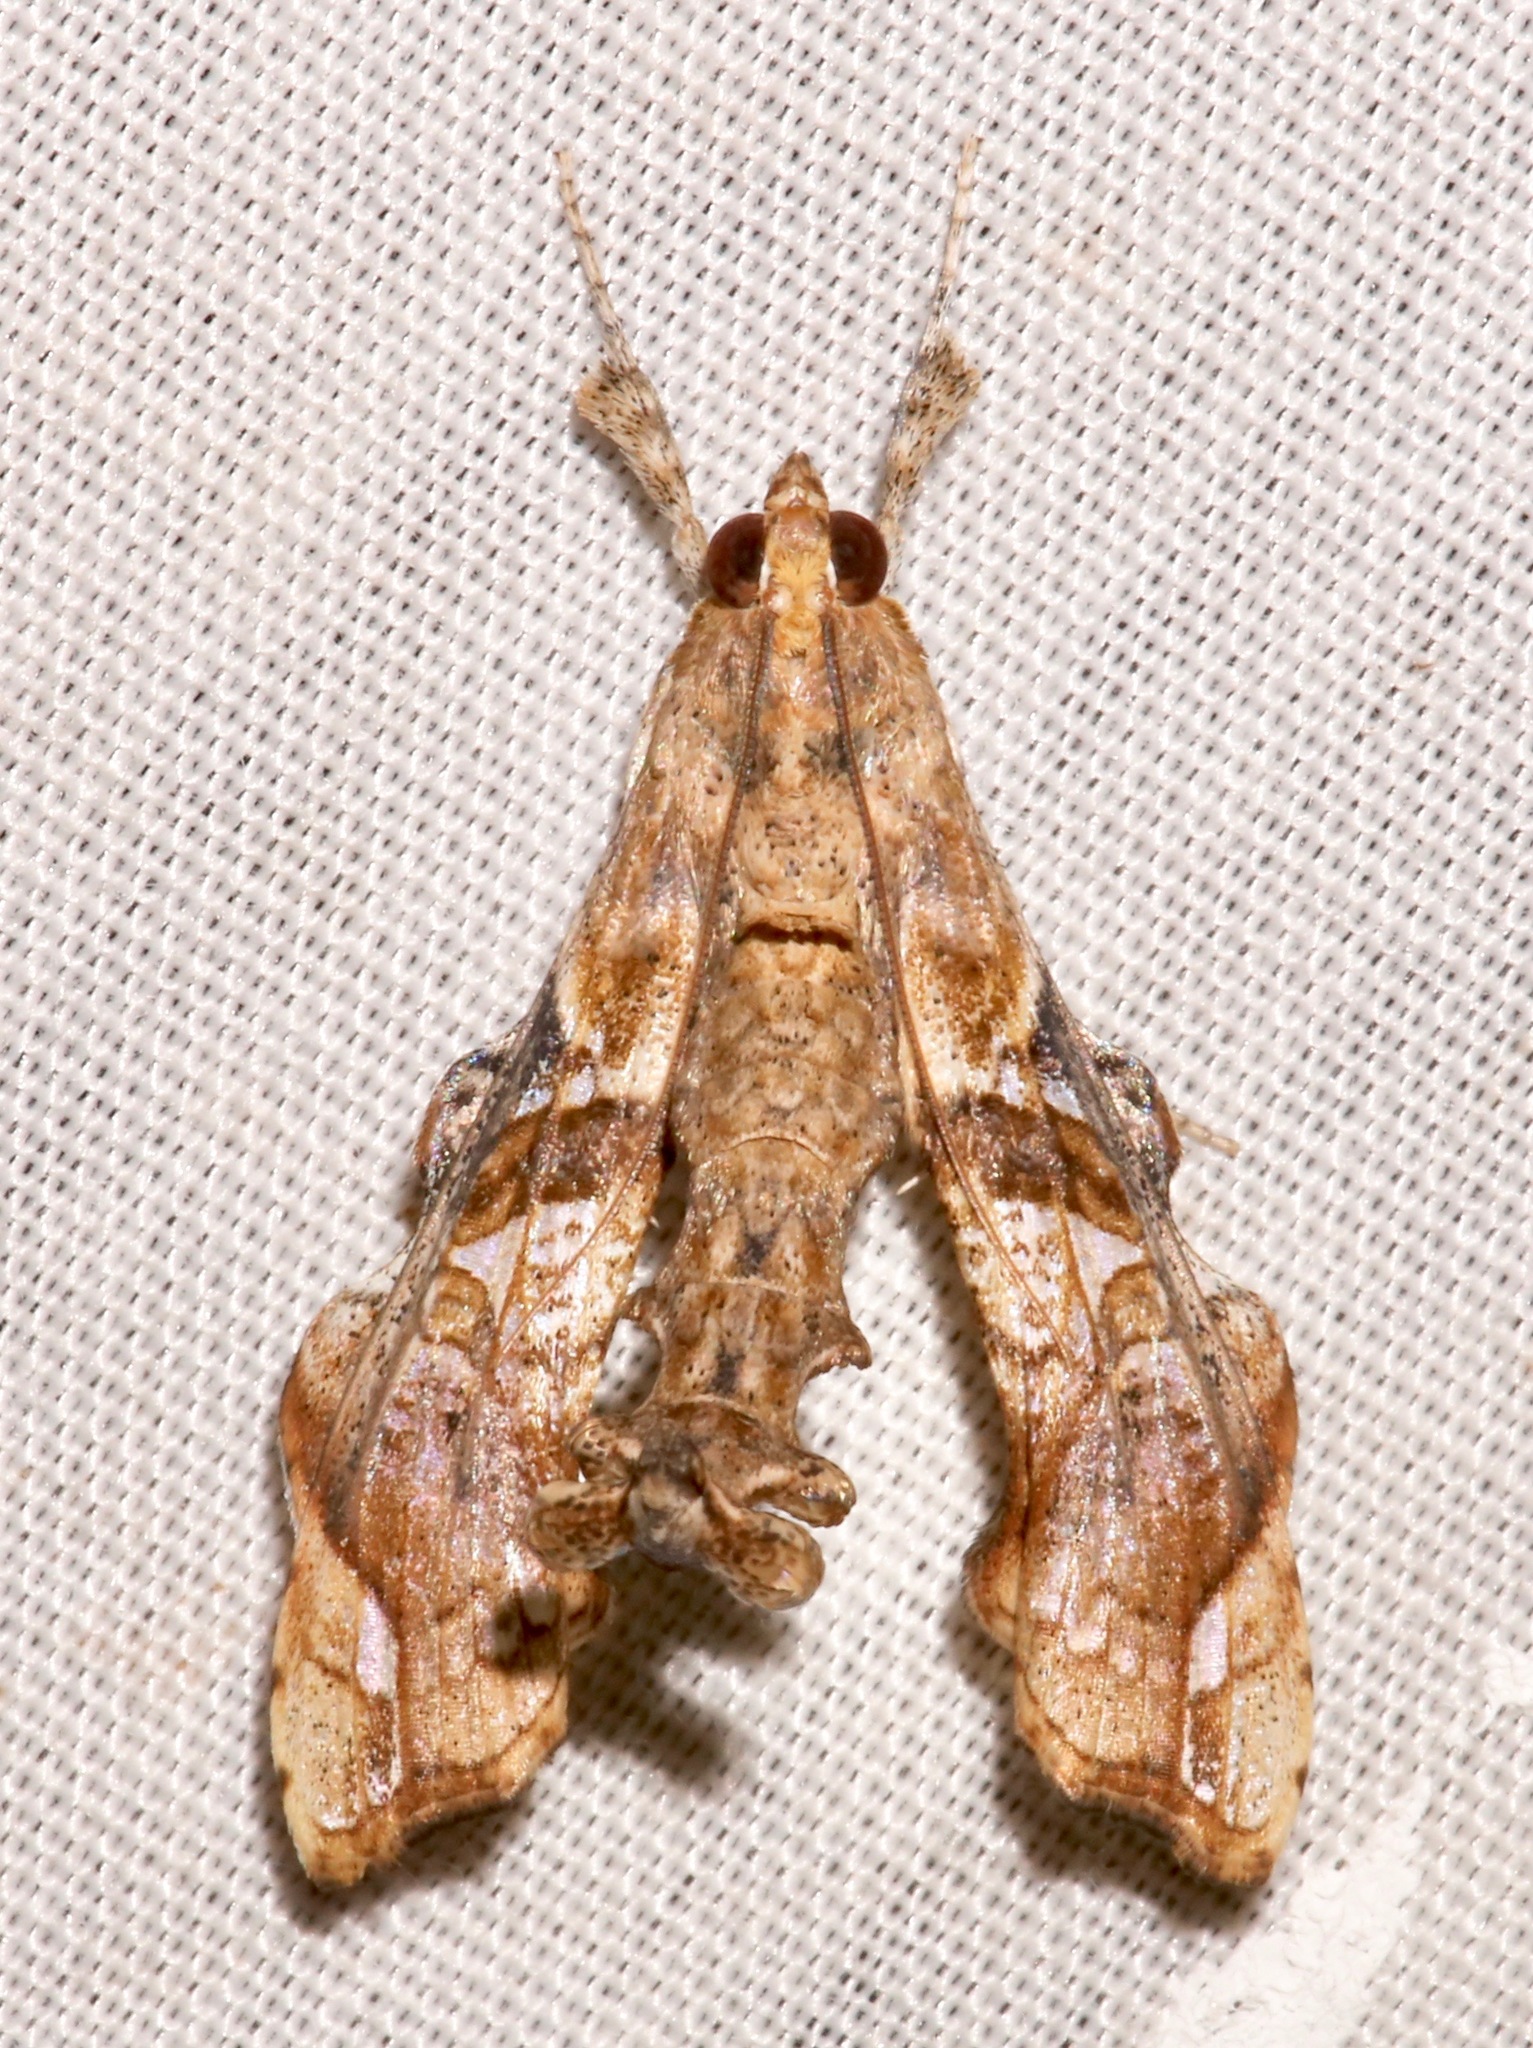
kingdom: Animalia
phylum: Arthropoda
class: Insecta
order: Lepidoptera
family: Crambidae
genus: Terastia
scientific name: Terastia meticulosalis
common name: Moth
